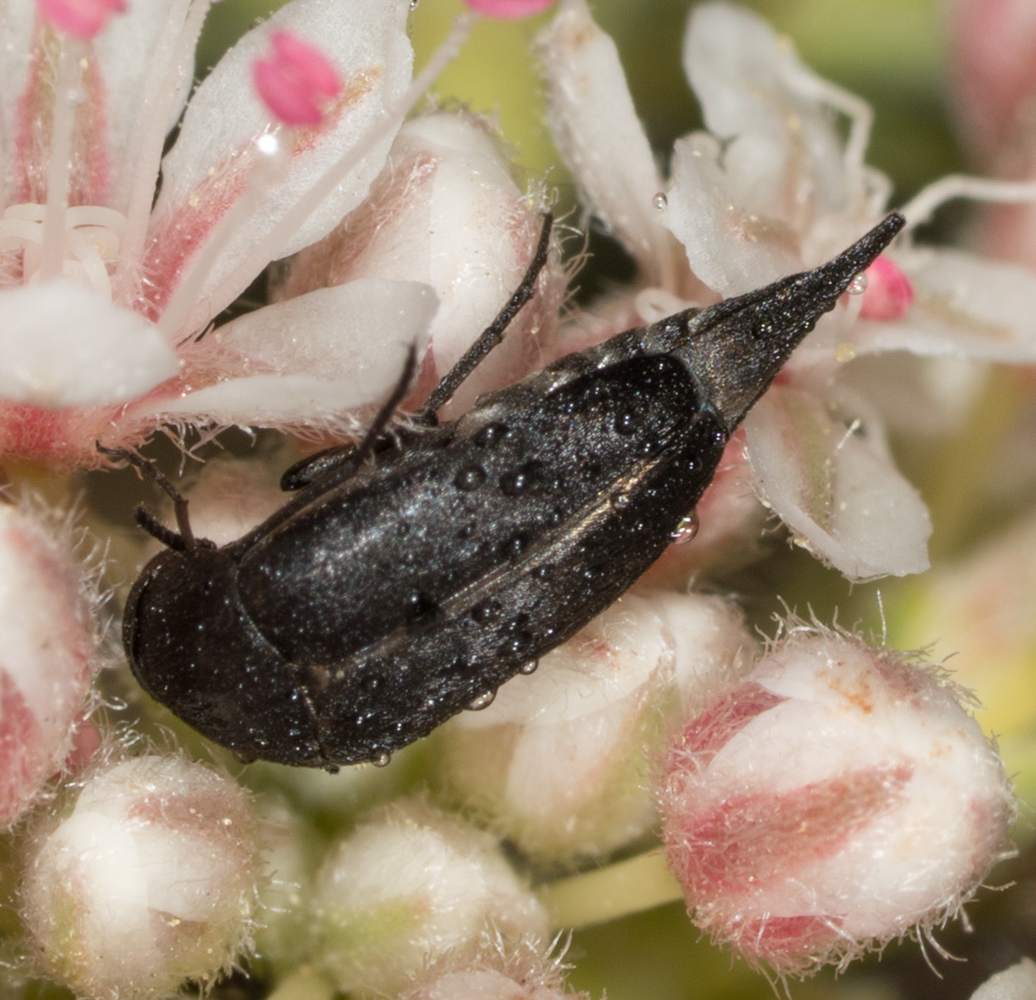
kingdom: Animalia
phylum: Arthropoda
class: Insecta
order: Coleoptera
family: Mordellidae
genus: Mordella
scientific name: Mordella hubbsi
